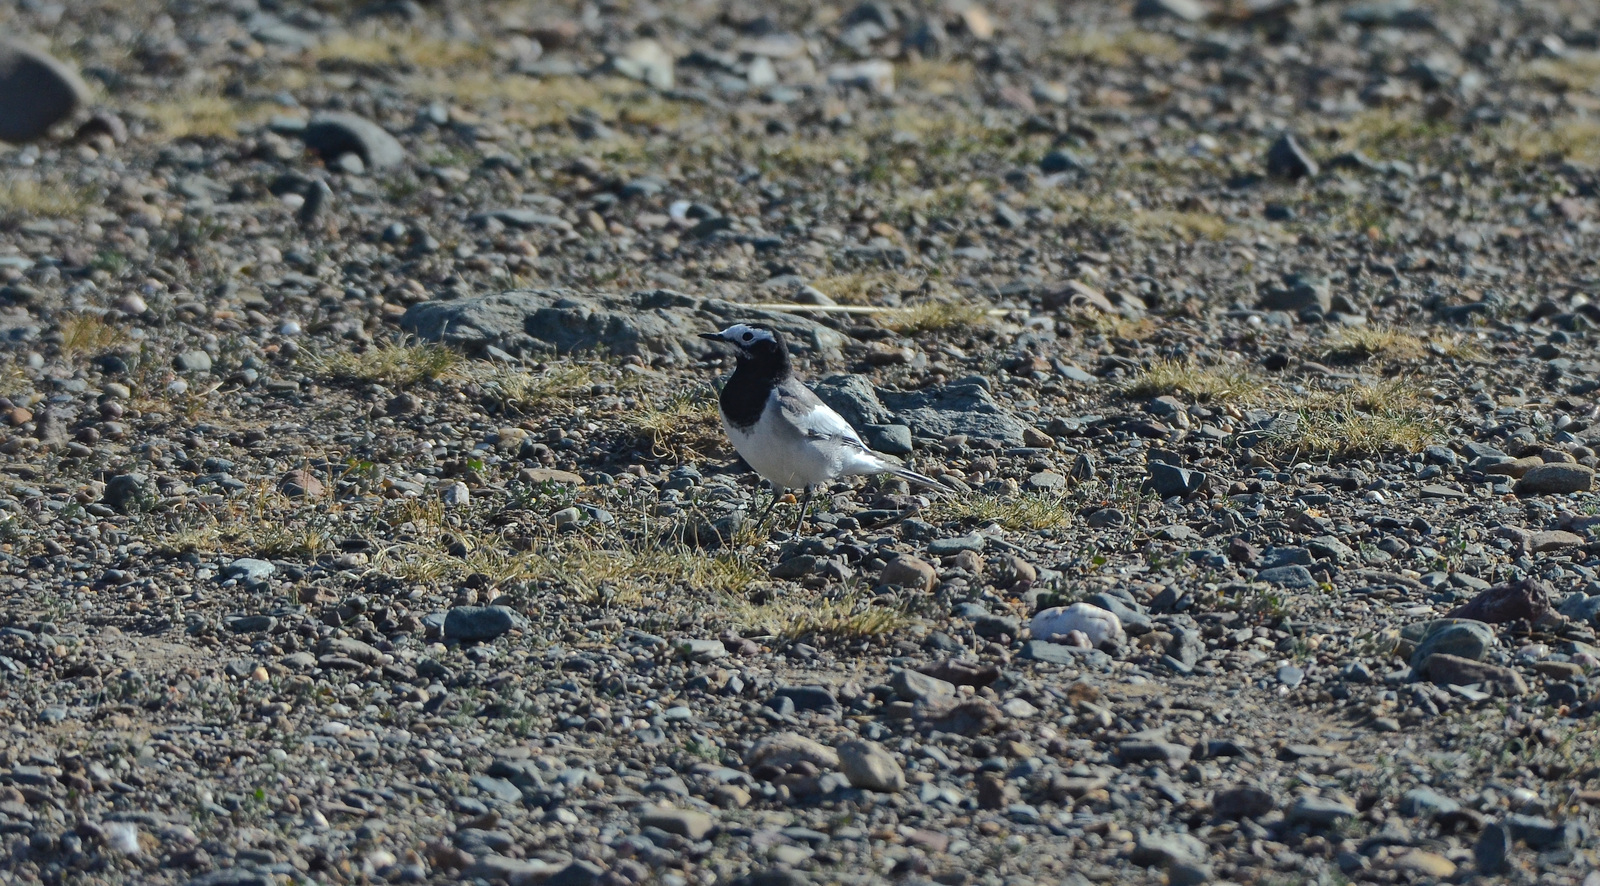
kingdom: Animalia
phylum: Chordata
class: Aves
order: Passeriformes
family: Motacillidae
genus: Motacilla
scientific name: Motacilla alba
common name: White wagtail
